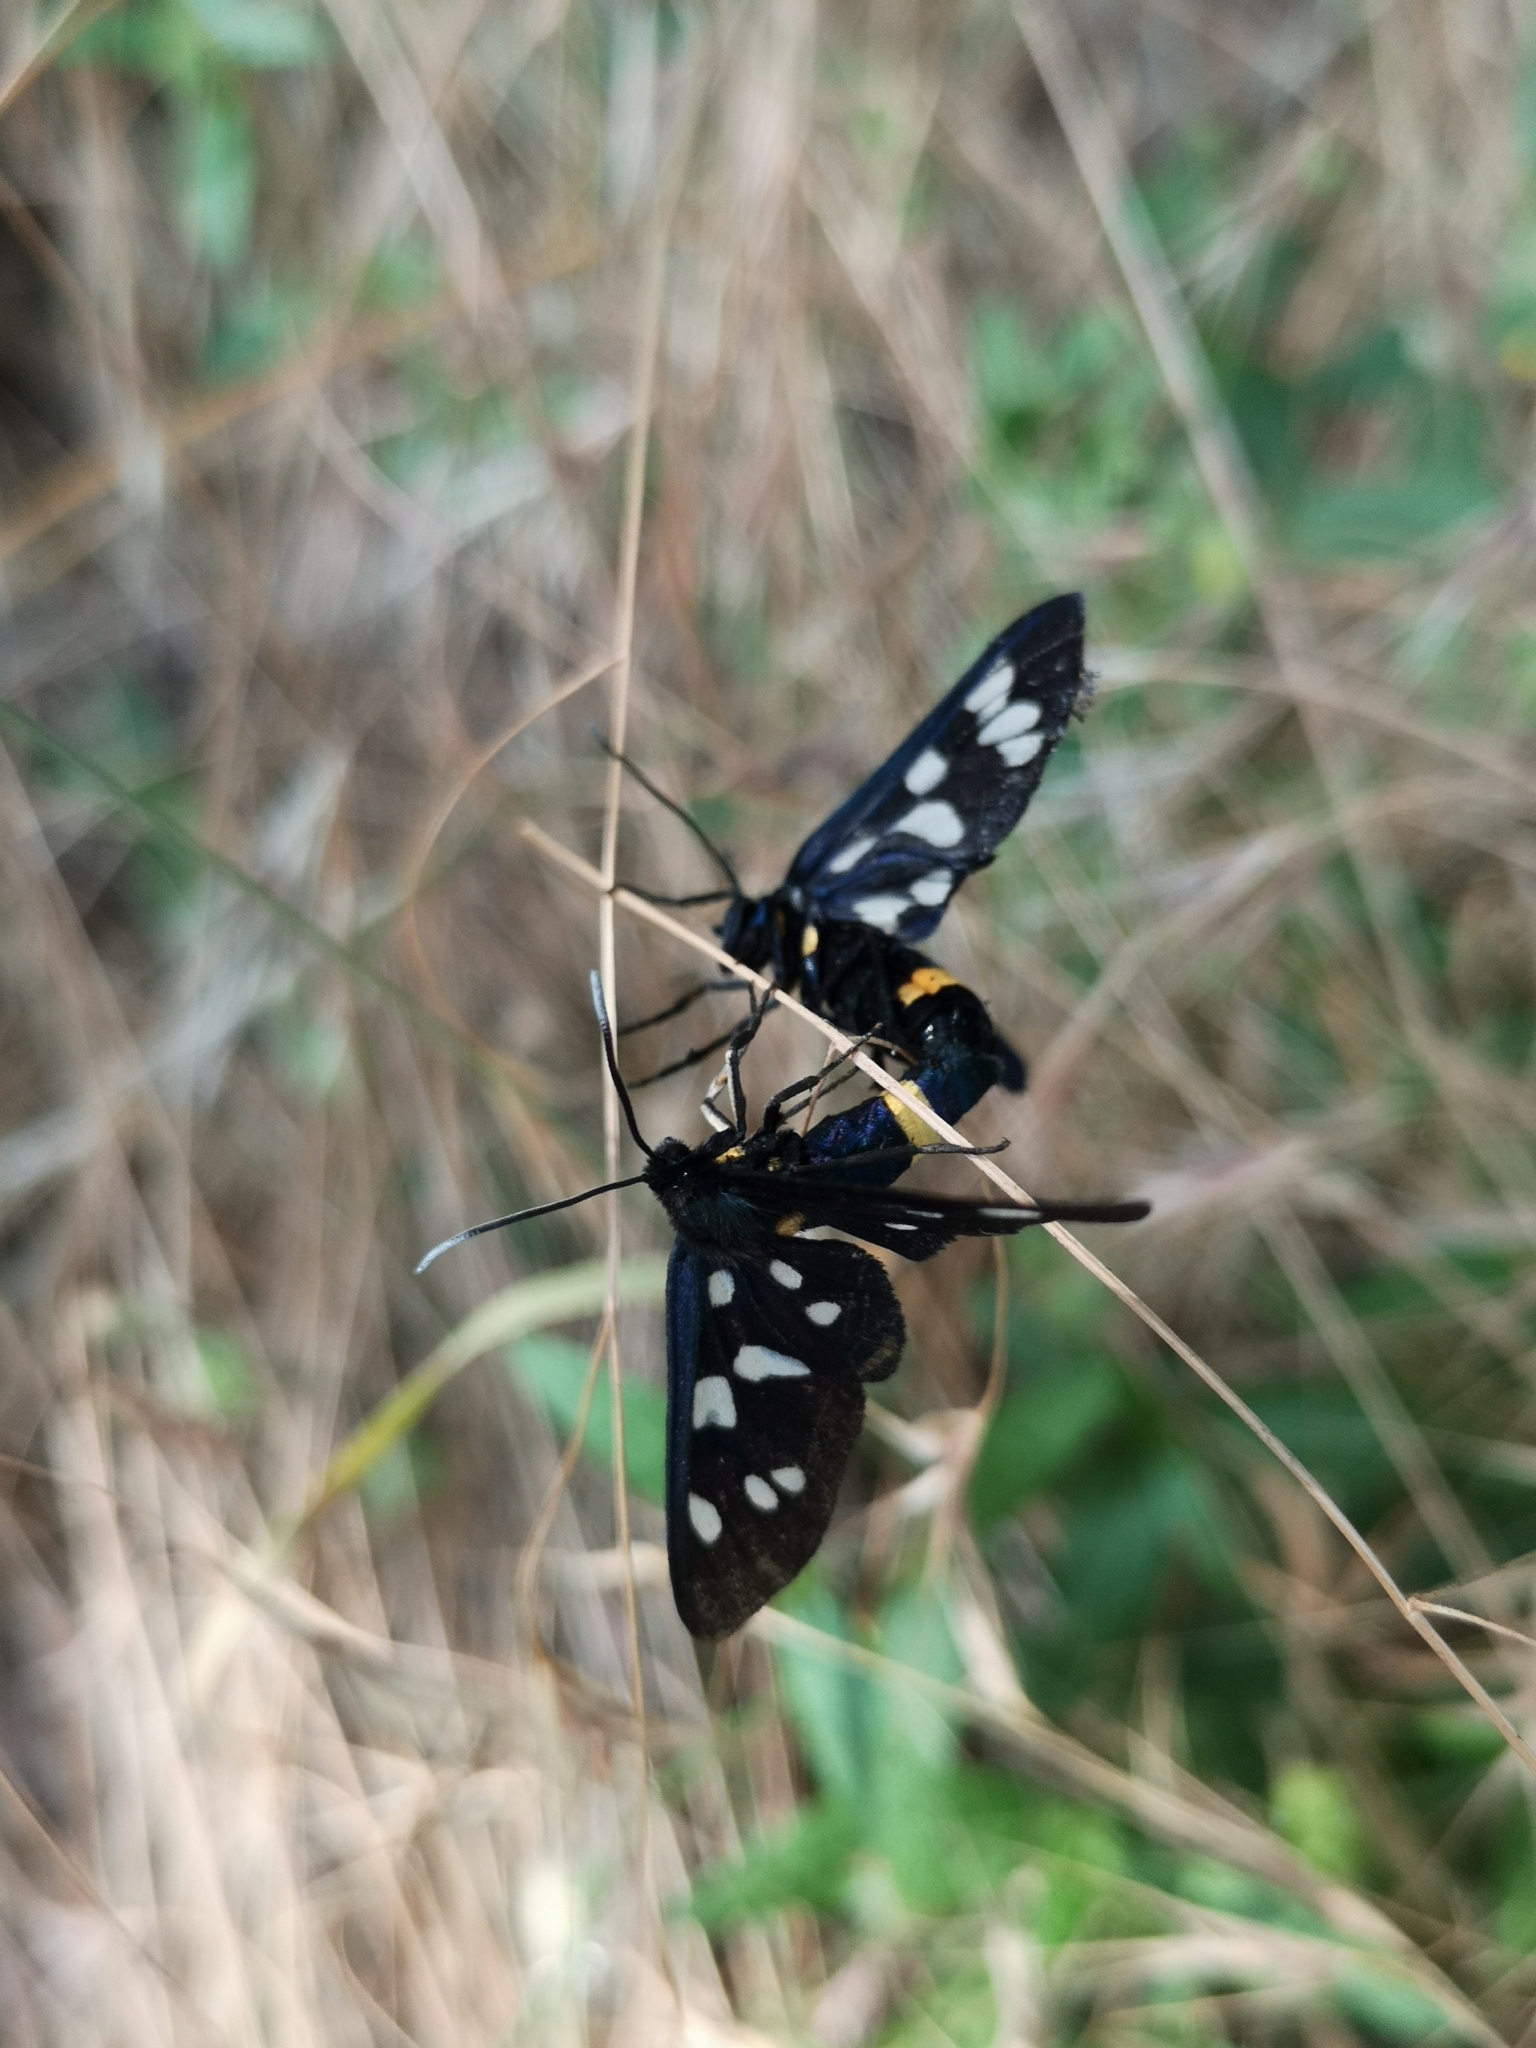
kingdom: Animalia
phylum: Arthropoda
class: Insecta
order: Lepidoptera
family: Erebidae
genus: Amata
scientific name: Amata phegea
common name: Nine-spotted
